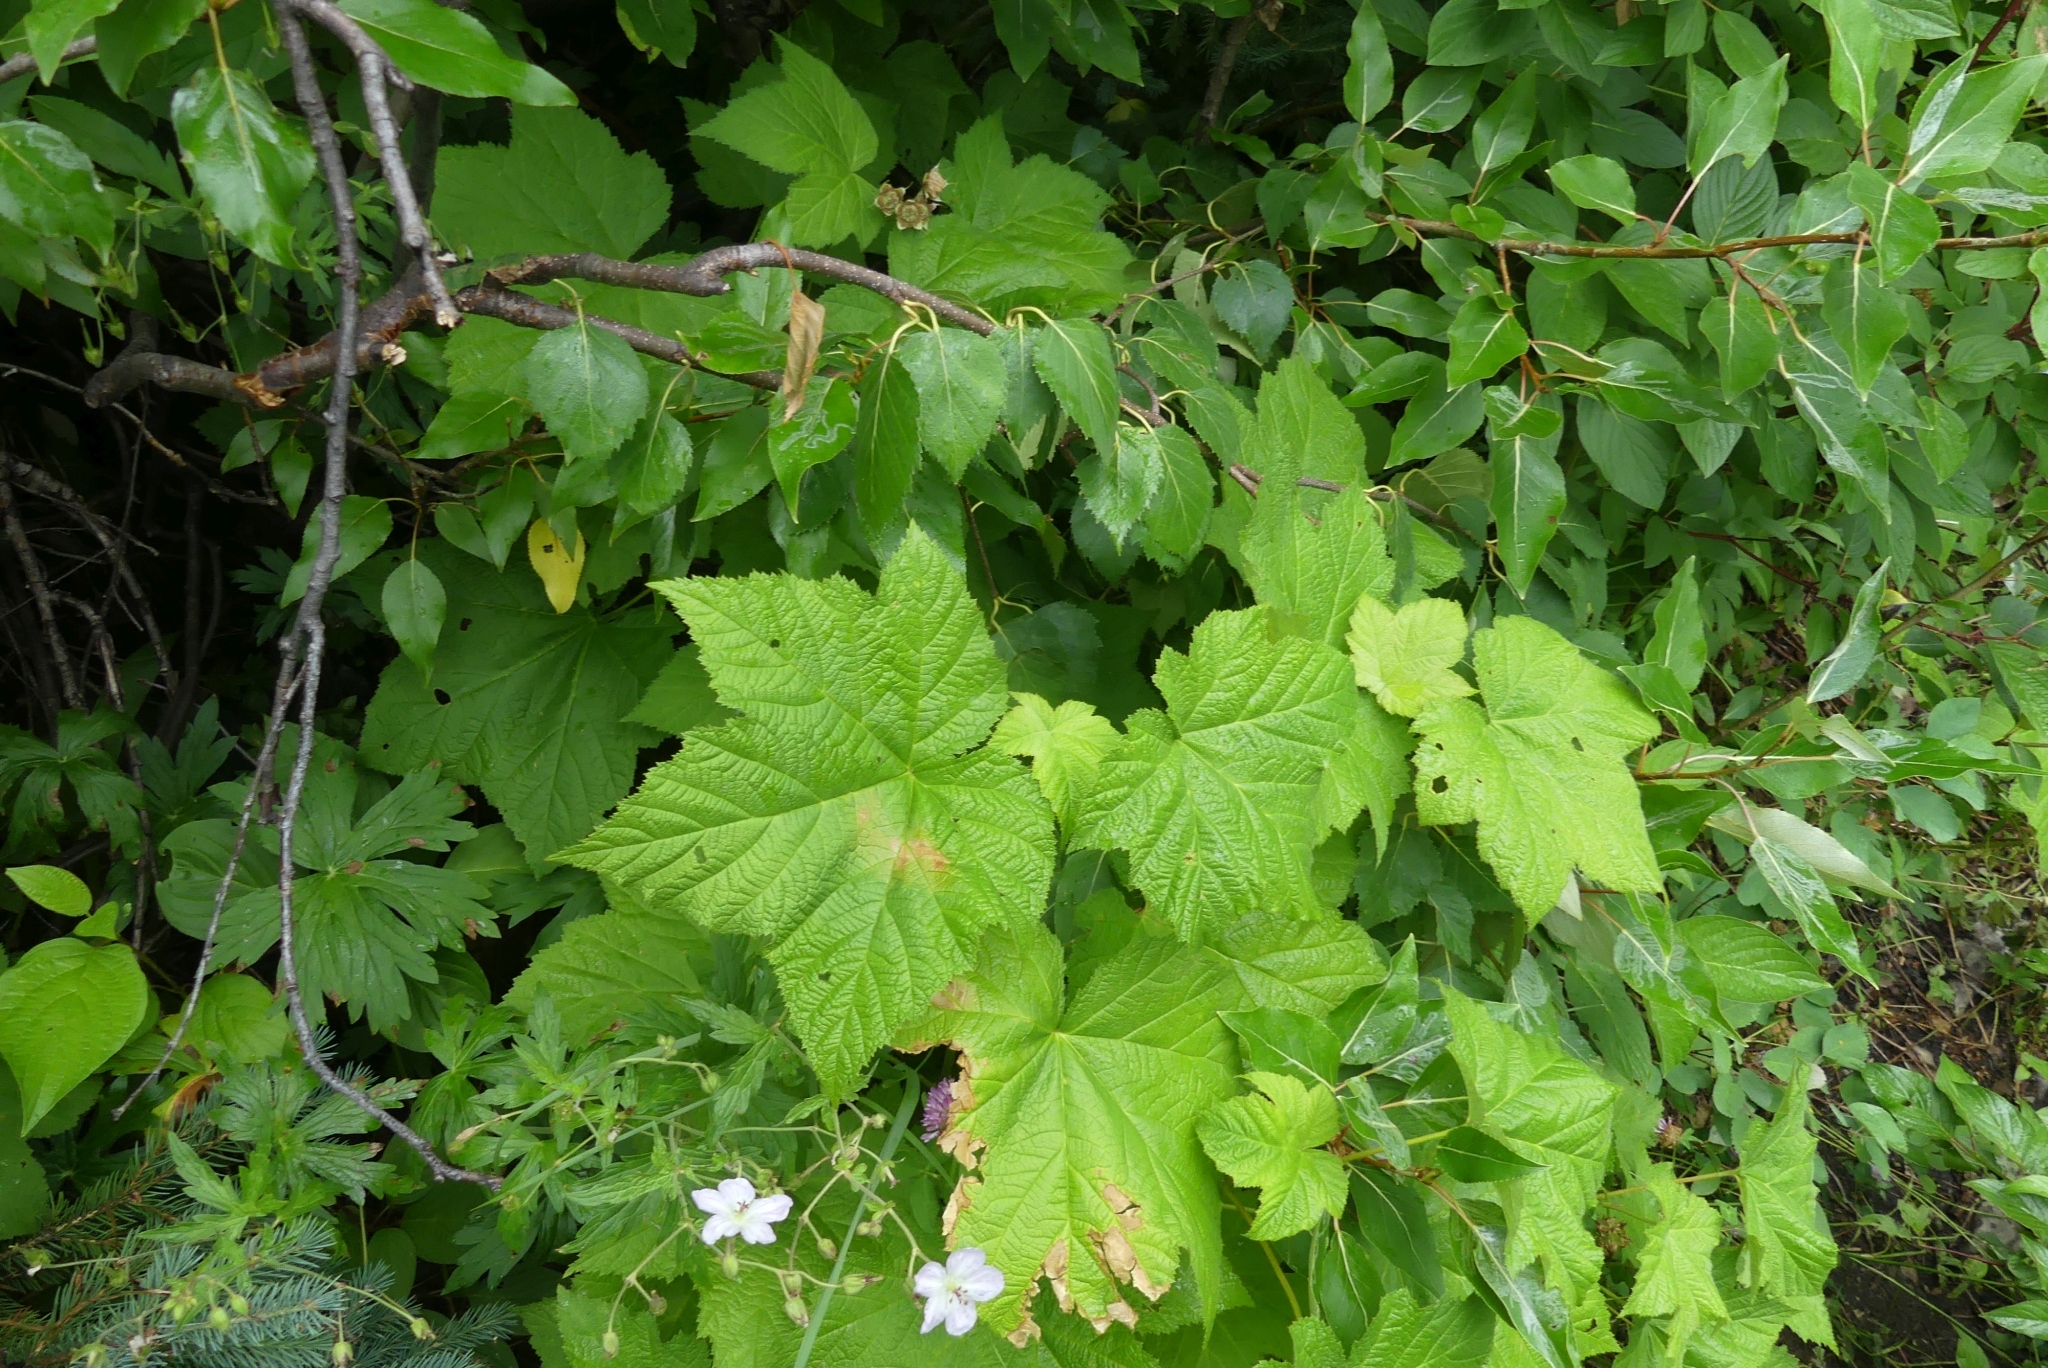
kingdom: Plantae
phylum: Tracheophyta
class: Magnoliopsida
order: Rosales
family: Rosaceae
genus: Rubus
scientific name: Rubus parviflorus
